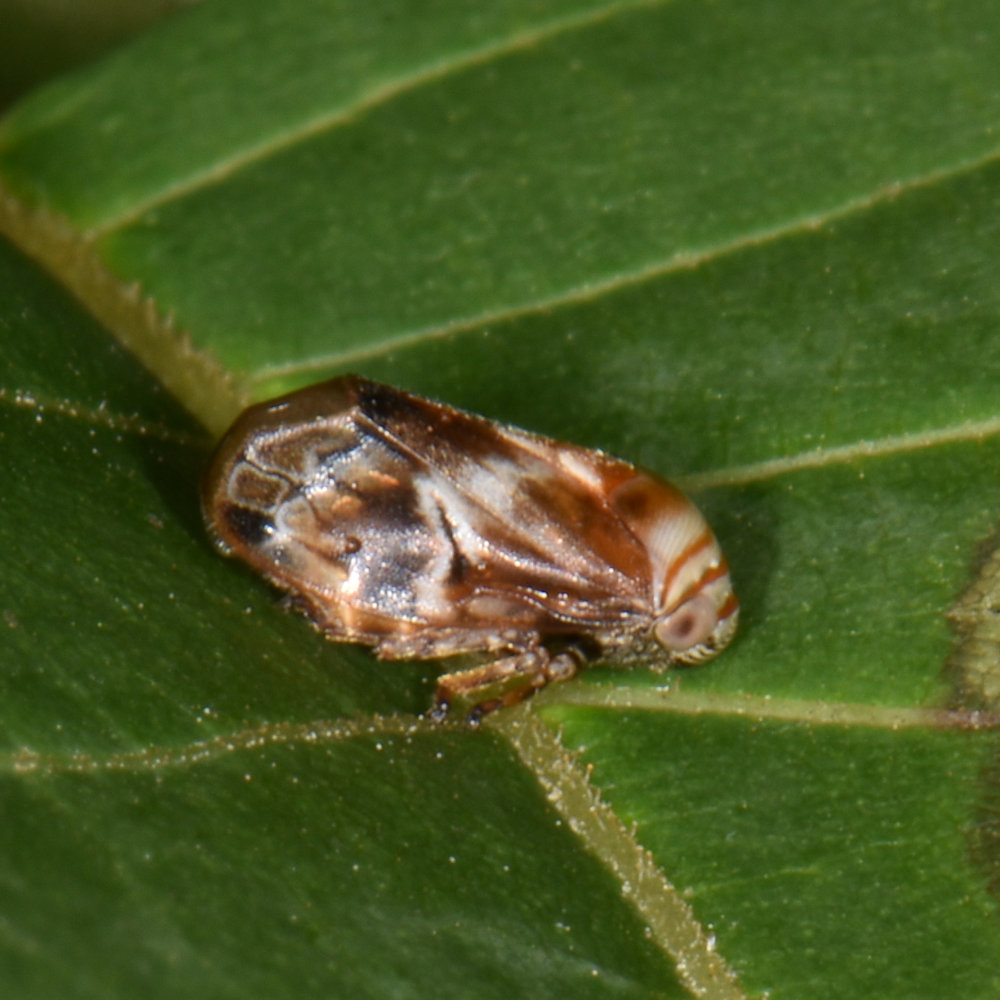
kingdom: Animalia
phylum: Arthropoda
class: Insecta
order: Hemiptera
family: Clastopteridae
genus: Clastoptera
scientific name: Clastoptera obtusa
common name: Alder spittlebug
